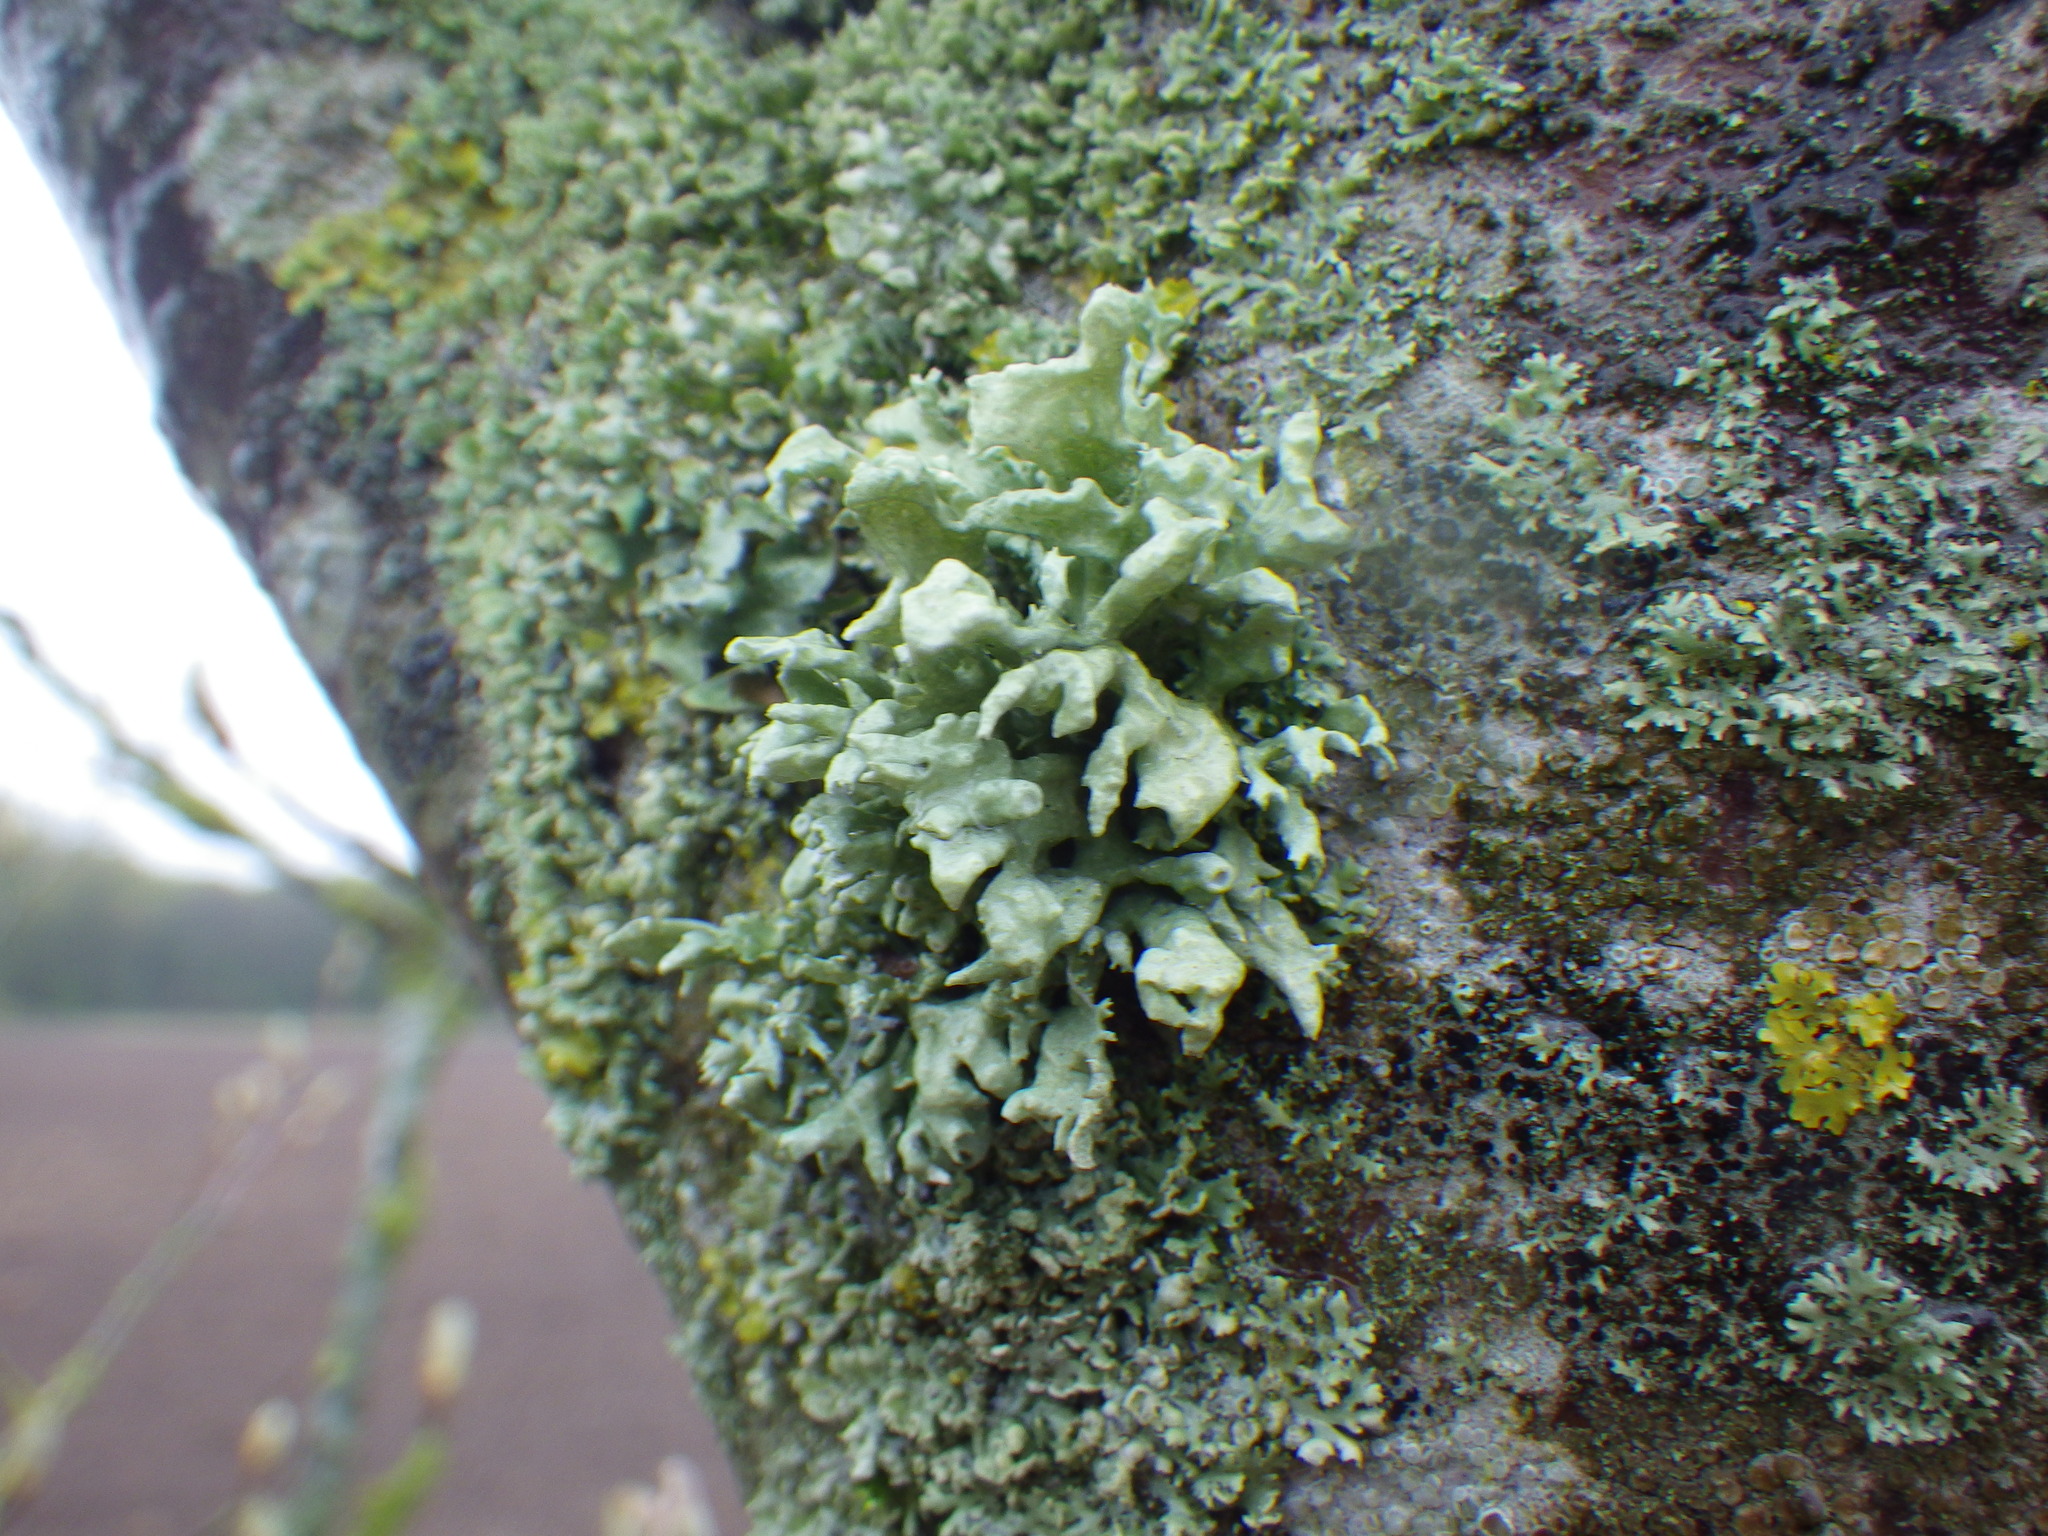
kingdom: Fungi
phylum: Ascomycota
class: Lecanoromycetes
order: Lecanorales
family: Ramalinaceae
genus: Ramalina
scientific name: Ramalina fastigiata
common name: Dotted ribbon lichen
